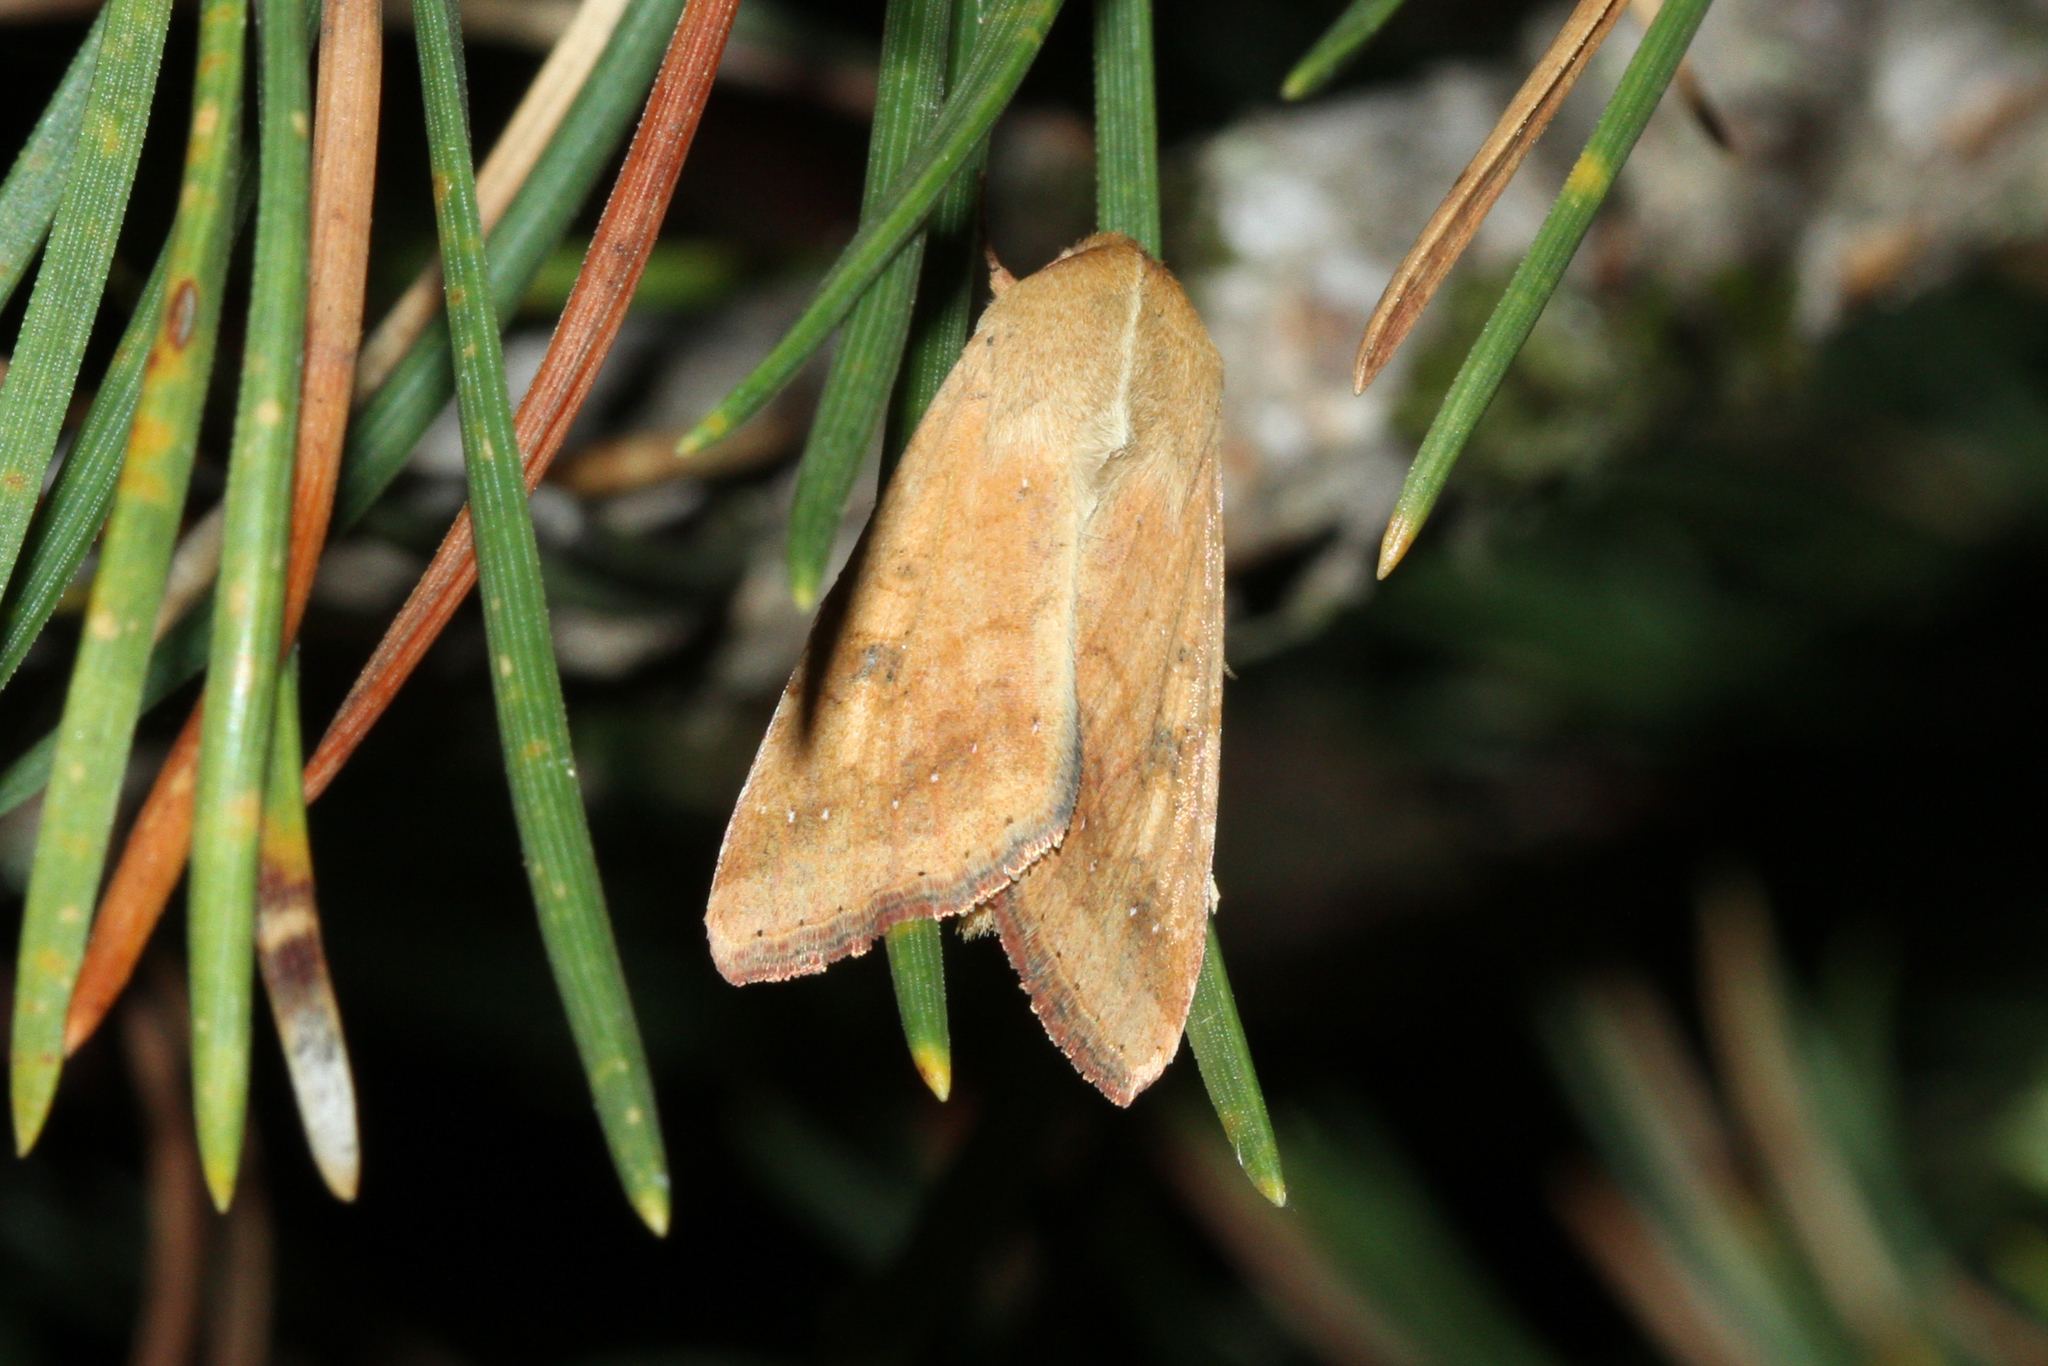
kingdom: Animalia
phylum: Arthropoda
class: Insecta
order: Lepidoptera
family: Noctuidae
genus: Helicoverpa
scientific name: Helicoverpa armigera
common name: Cotton bollworm
